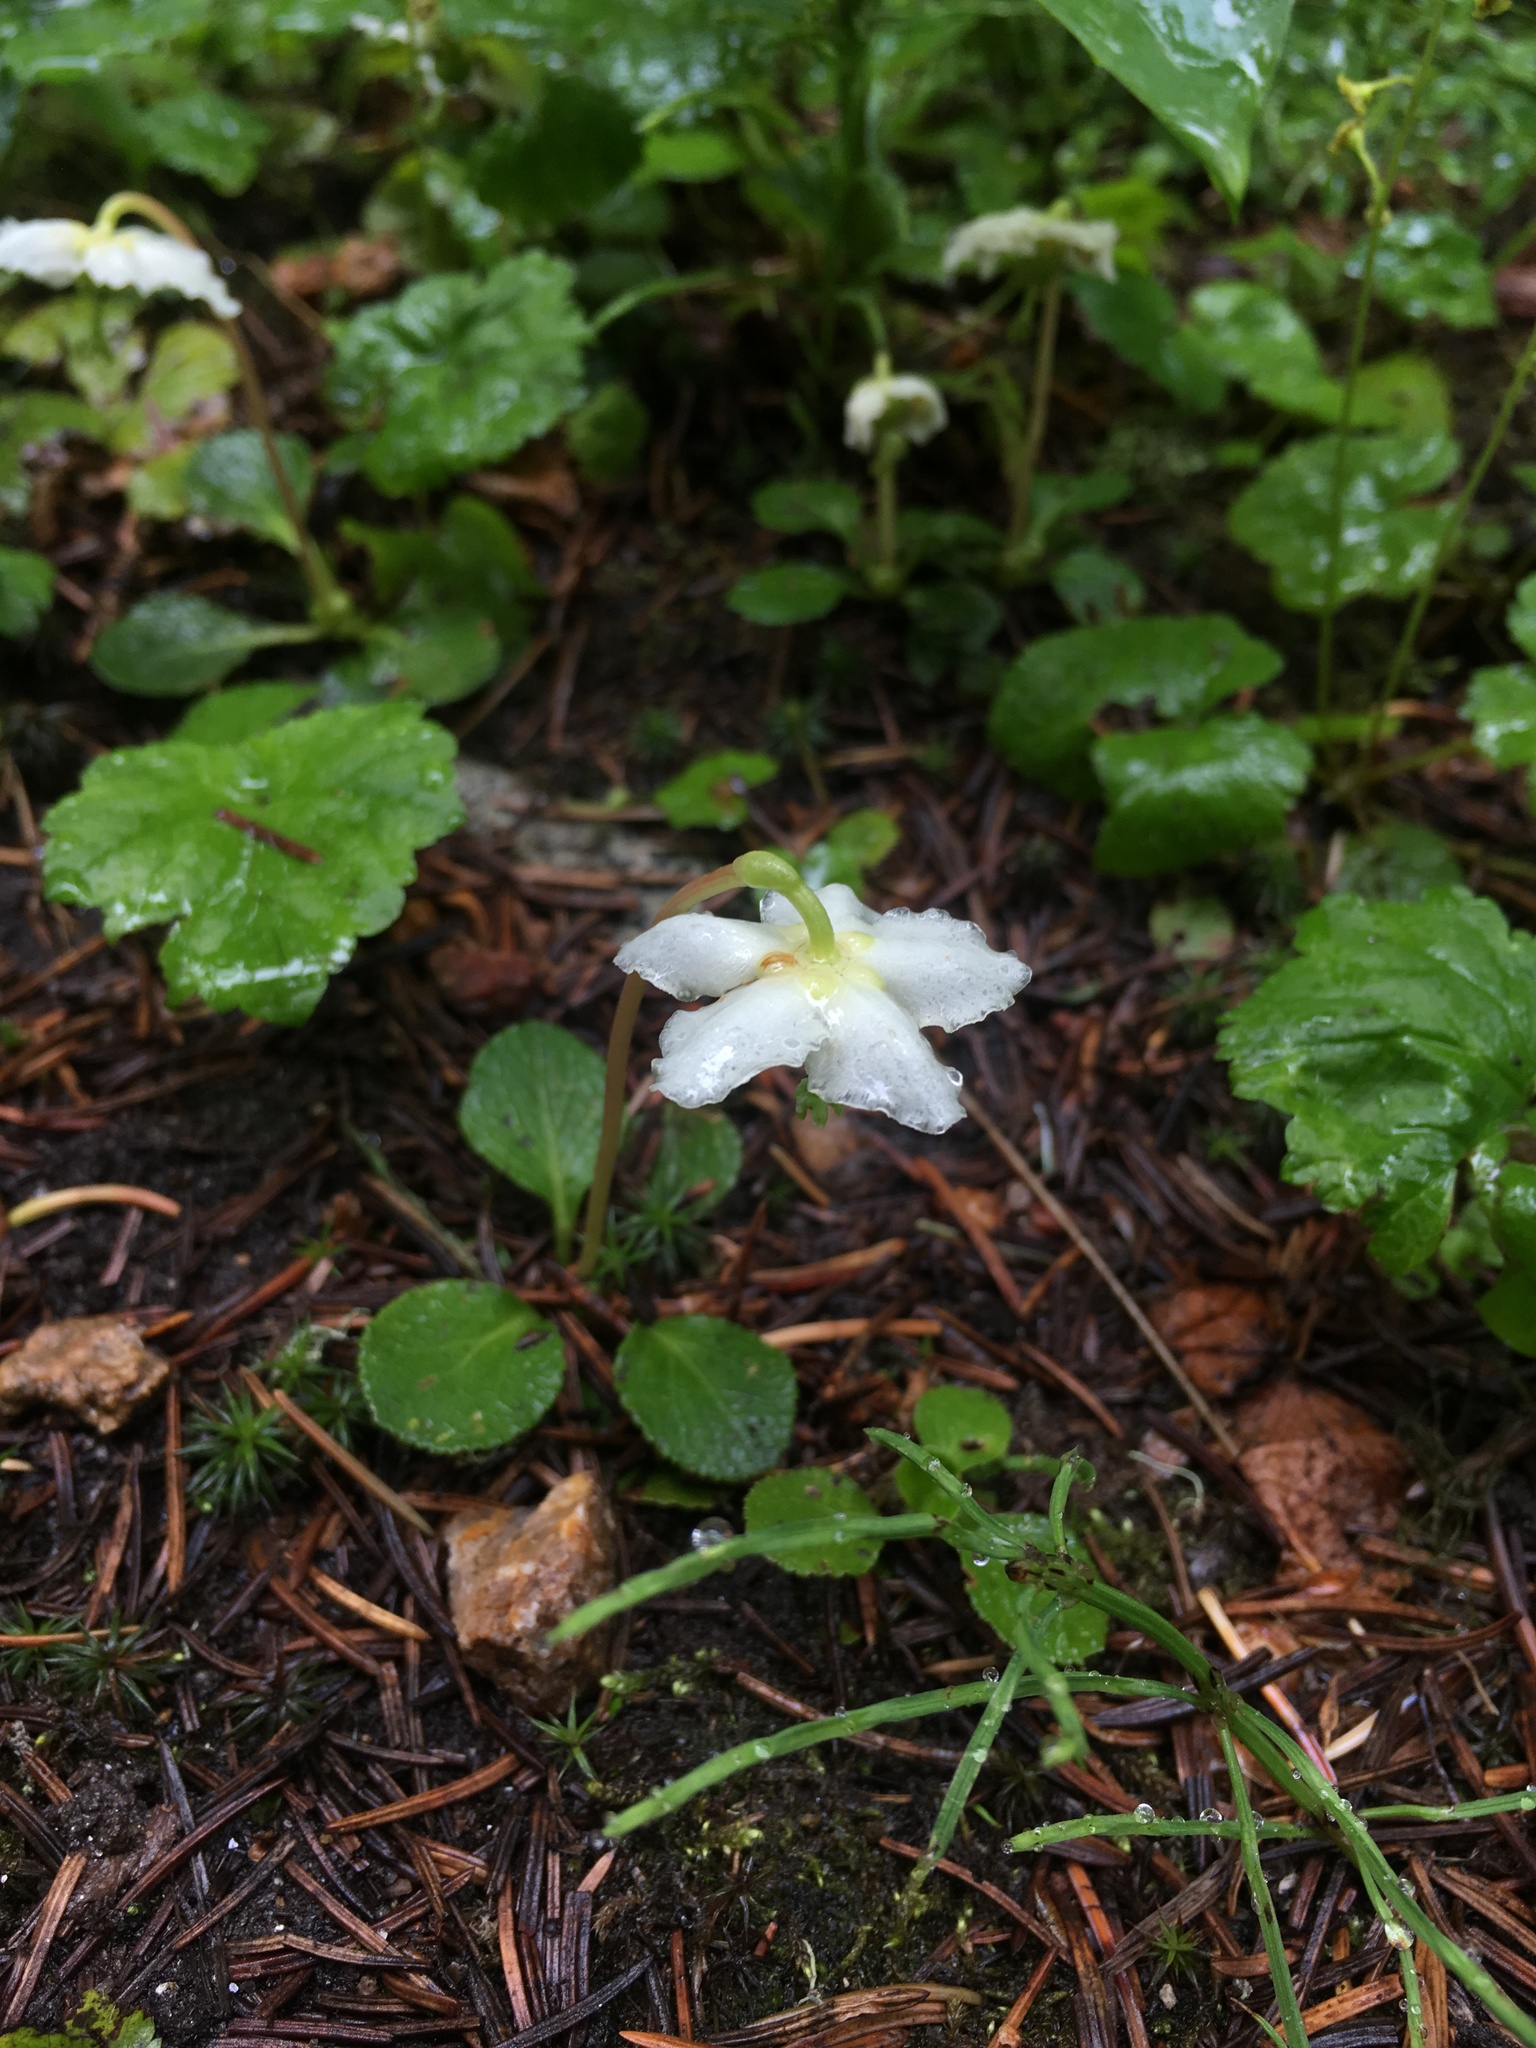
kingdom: Plantae
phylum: Tracheophyta
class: Magnoliopsida
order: Ericales
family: Ericaceae
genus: Moneses
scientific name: Moneses uniflora
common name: One-flowered wintergreen
